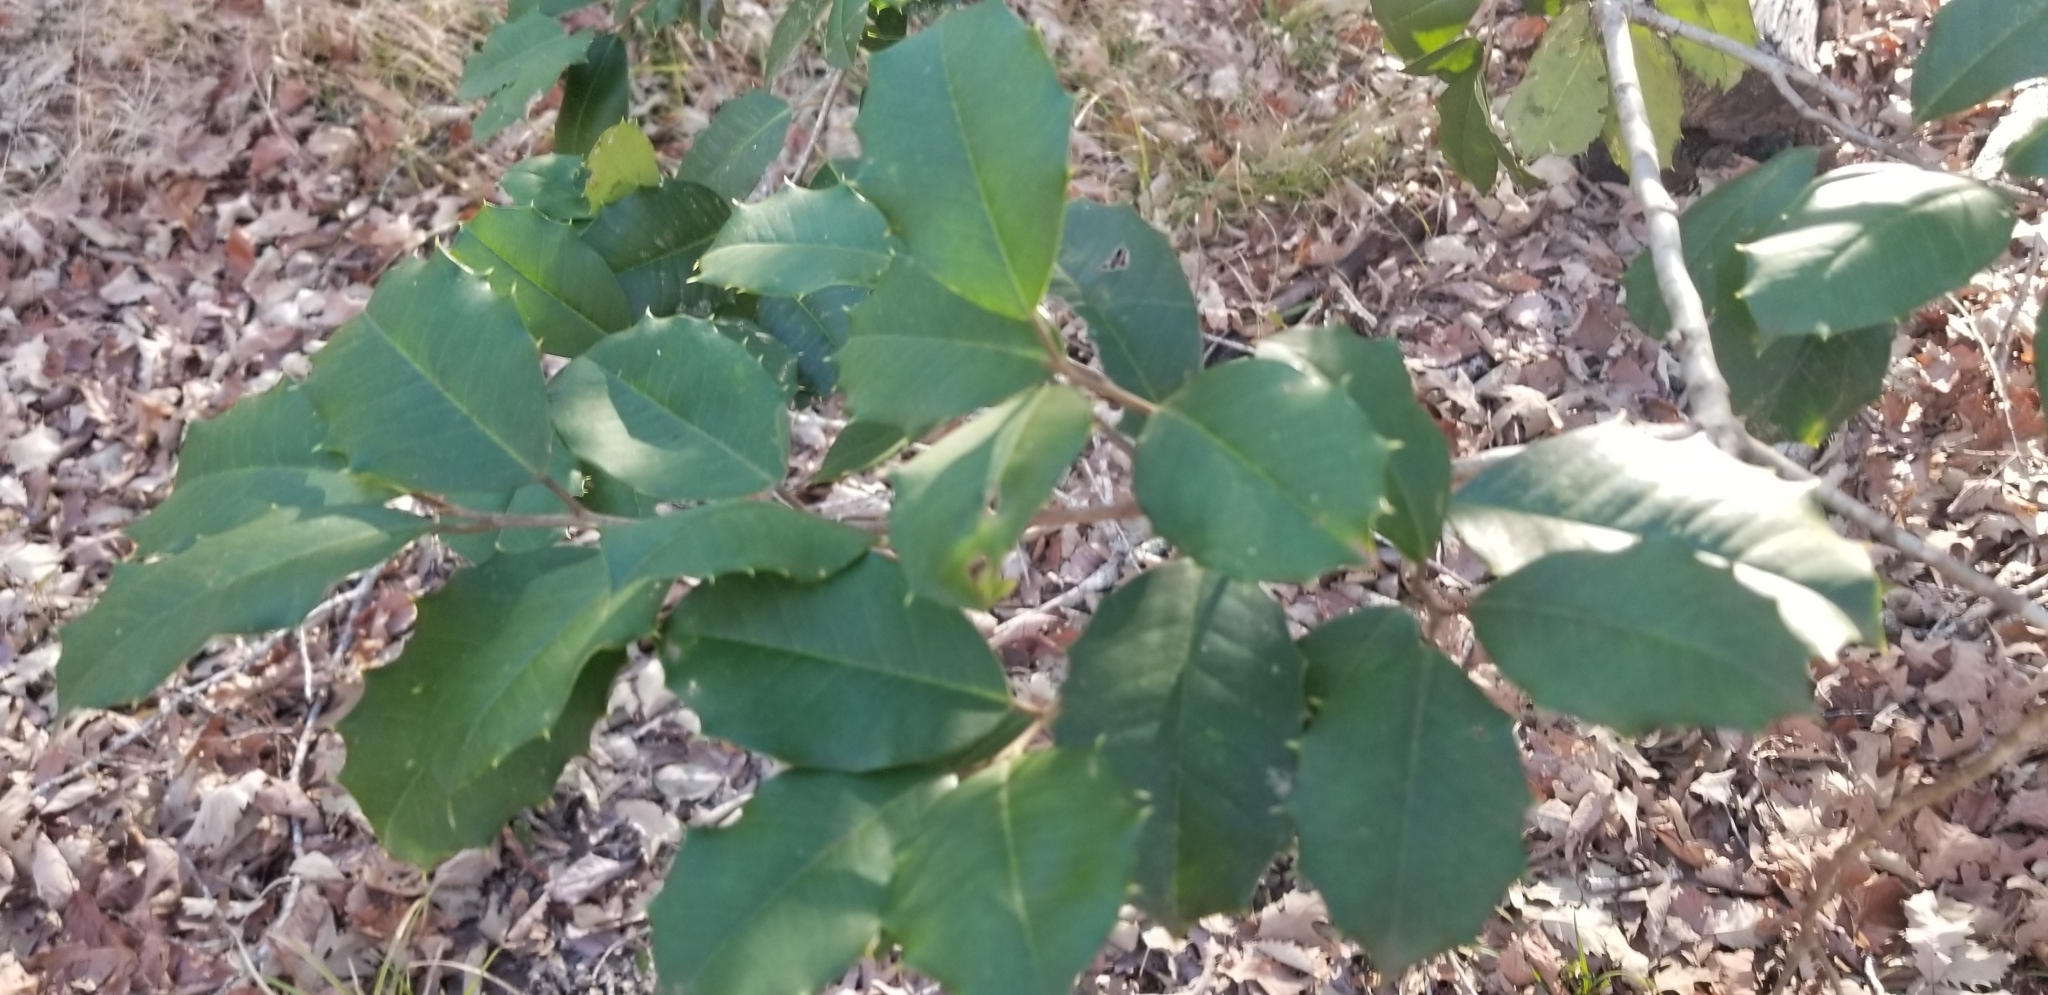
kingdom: Plantae
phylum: Tracheophyta
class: Magnoliopsida
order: Aquifoliales
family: Aquifoliaceae
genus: Ilex
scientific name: Ilex opaca
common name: American holly
